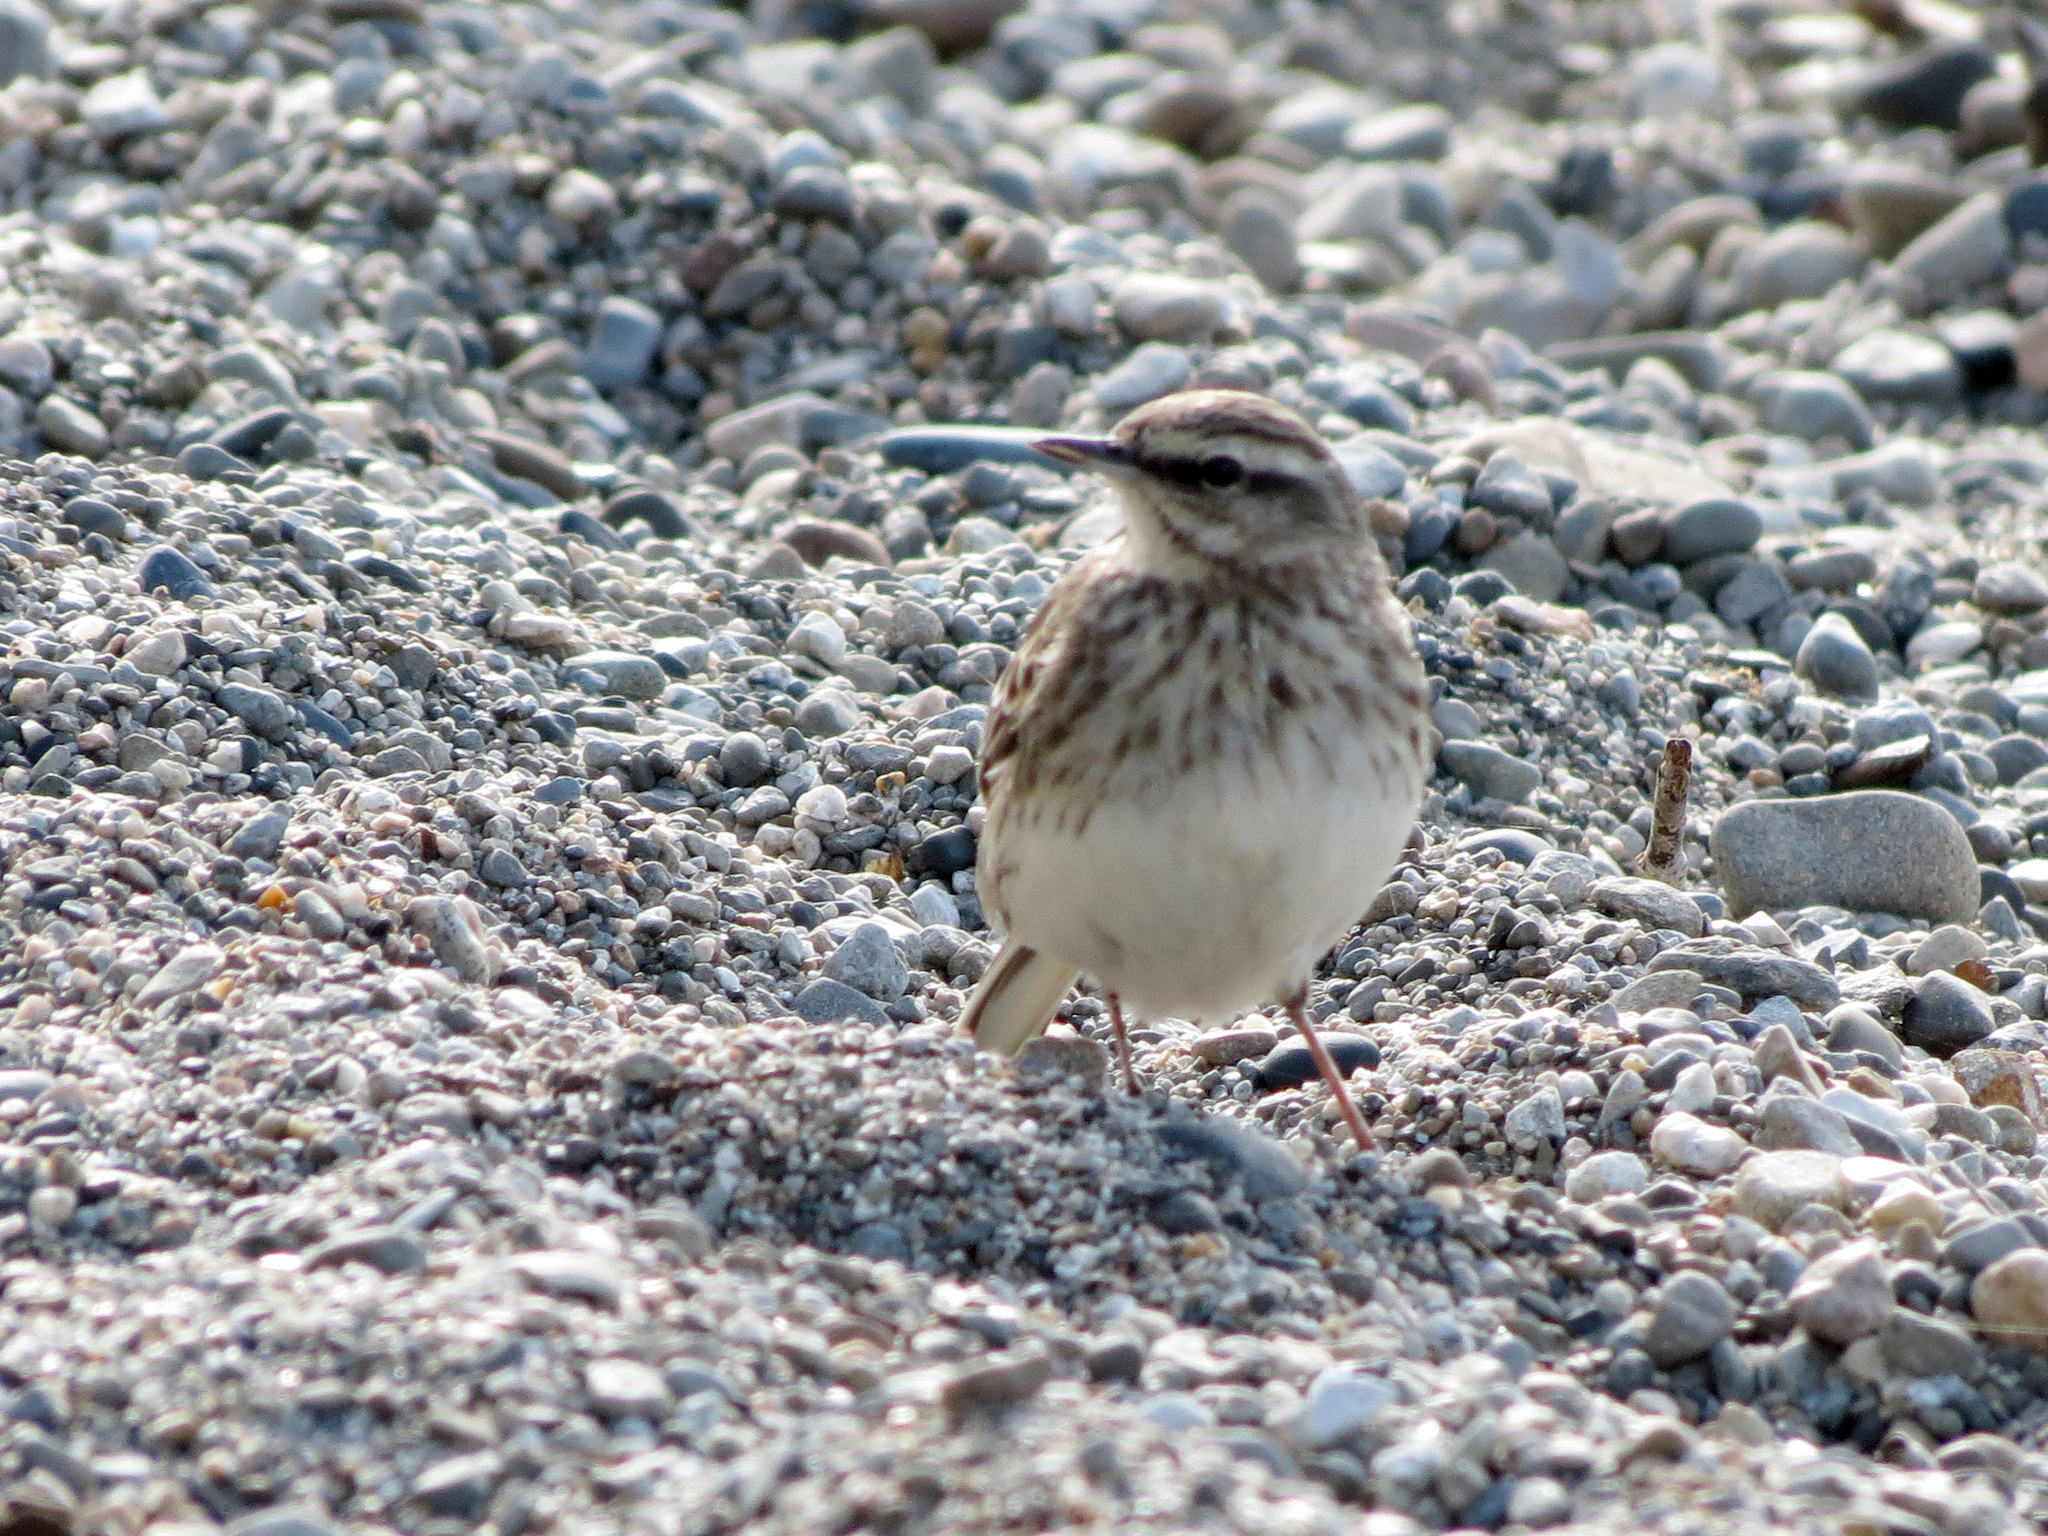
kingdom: Animalia
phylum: Chordata
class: Aves
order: Passeriformes
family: Motacillidae
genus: Anthus
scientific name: Anthus novaeseelandiae
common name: New zealand pipit
